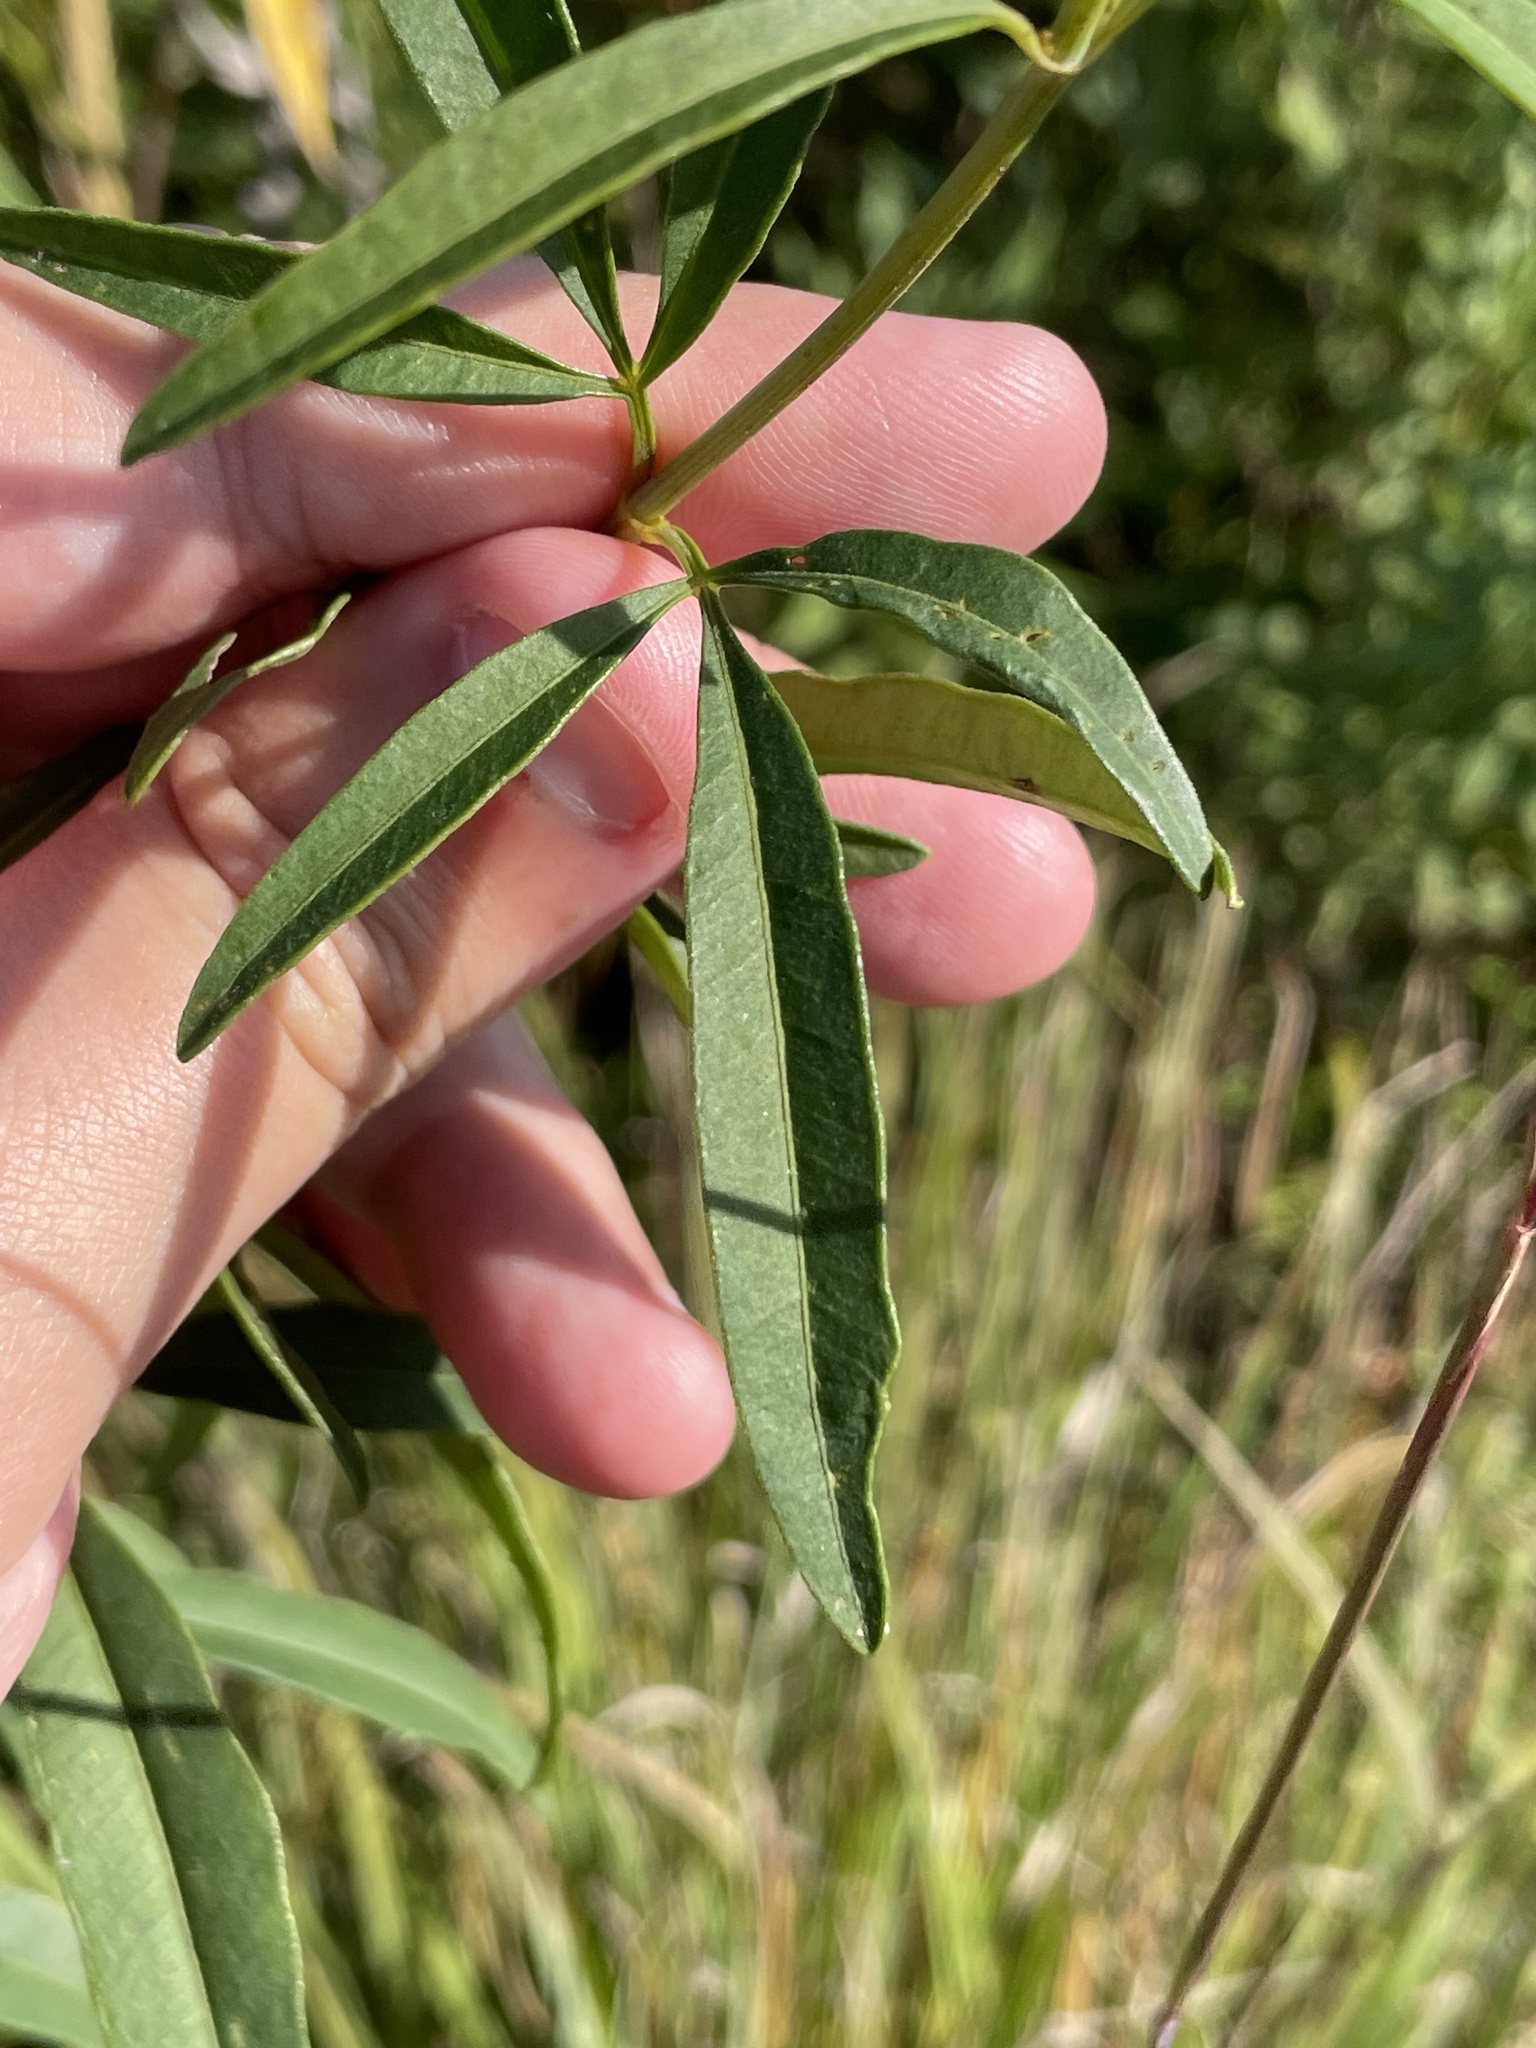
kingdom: Plantae
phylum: Tracheophyta
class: Magnoliopsida
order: Asterales
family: Asteraceae
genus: Coreopsis
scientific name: Coreopsis tripteris
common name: Tall coreopsis
